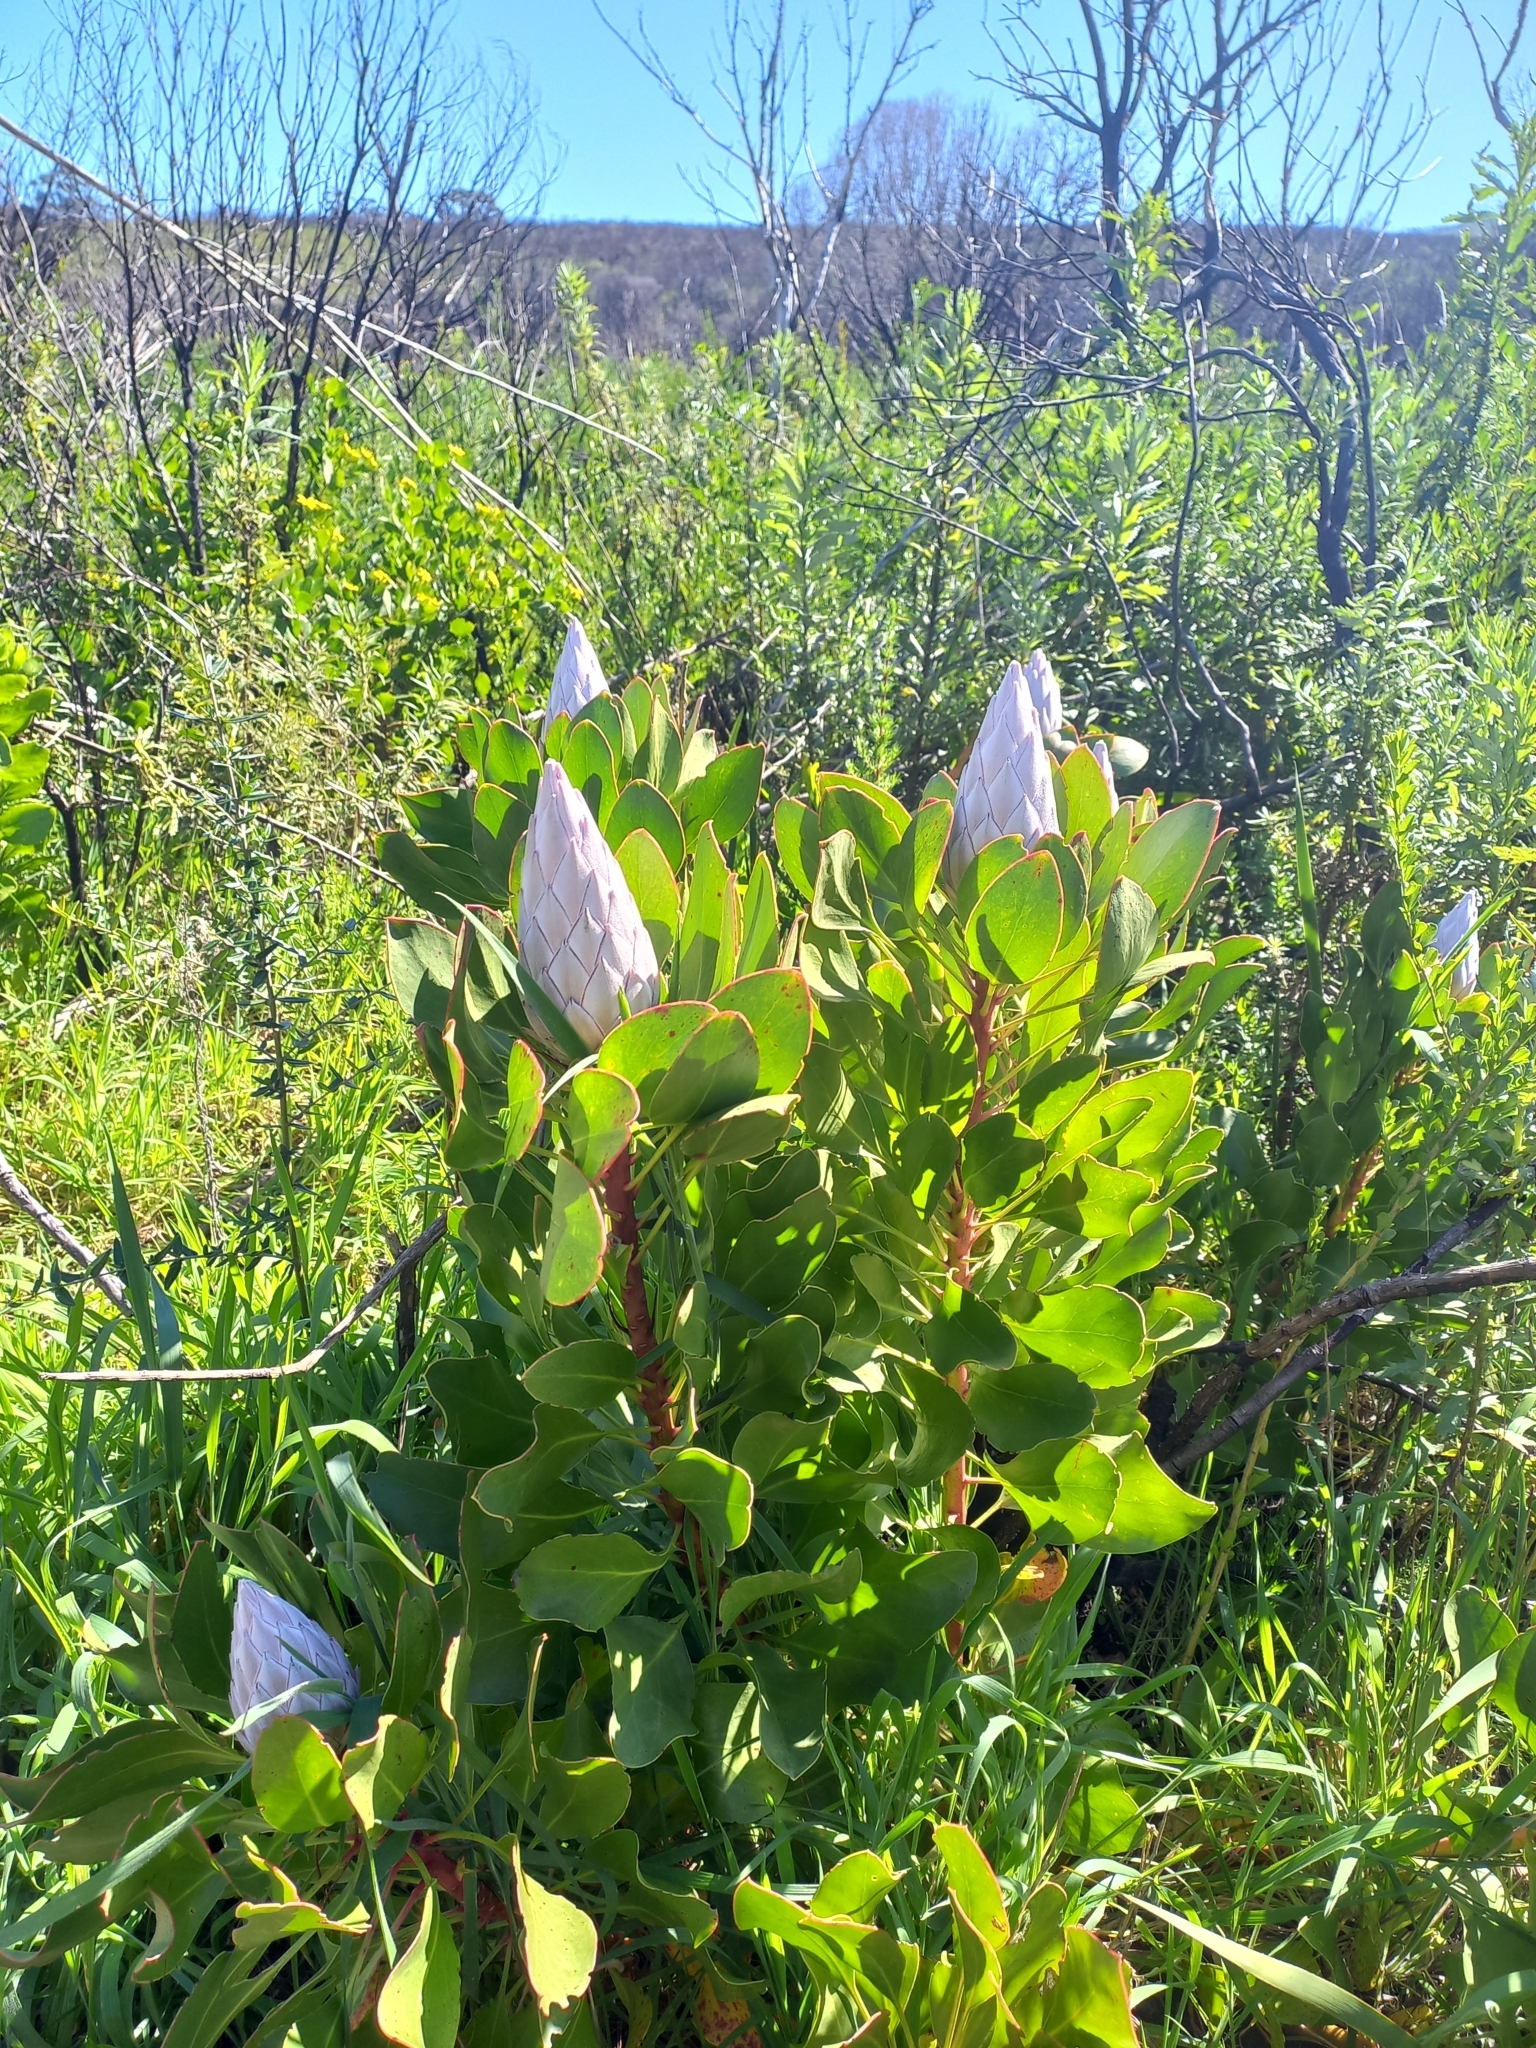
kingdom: Plantae
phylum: Tracheophyta
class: Magnoliopsida
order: Proteales
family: Proteaceae
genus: Protea
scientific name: Protea cynaroides
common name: King protea
